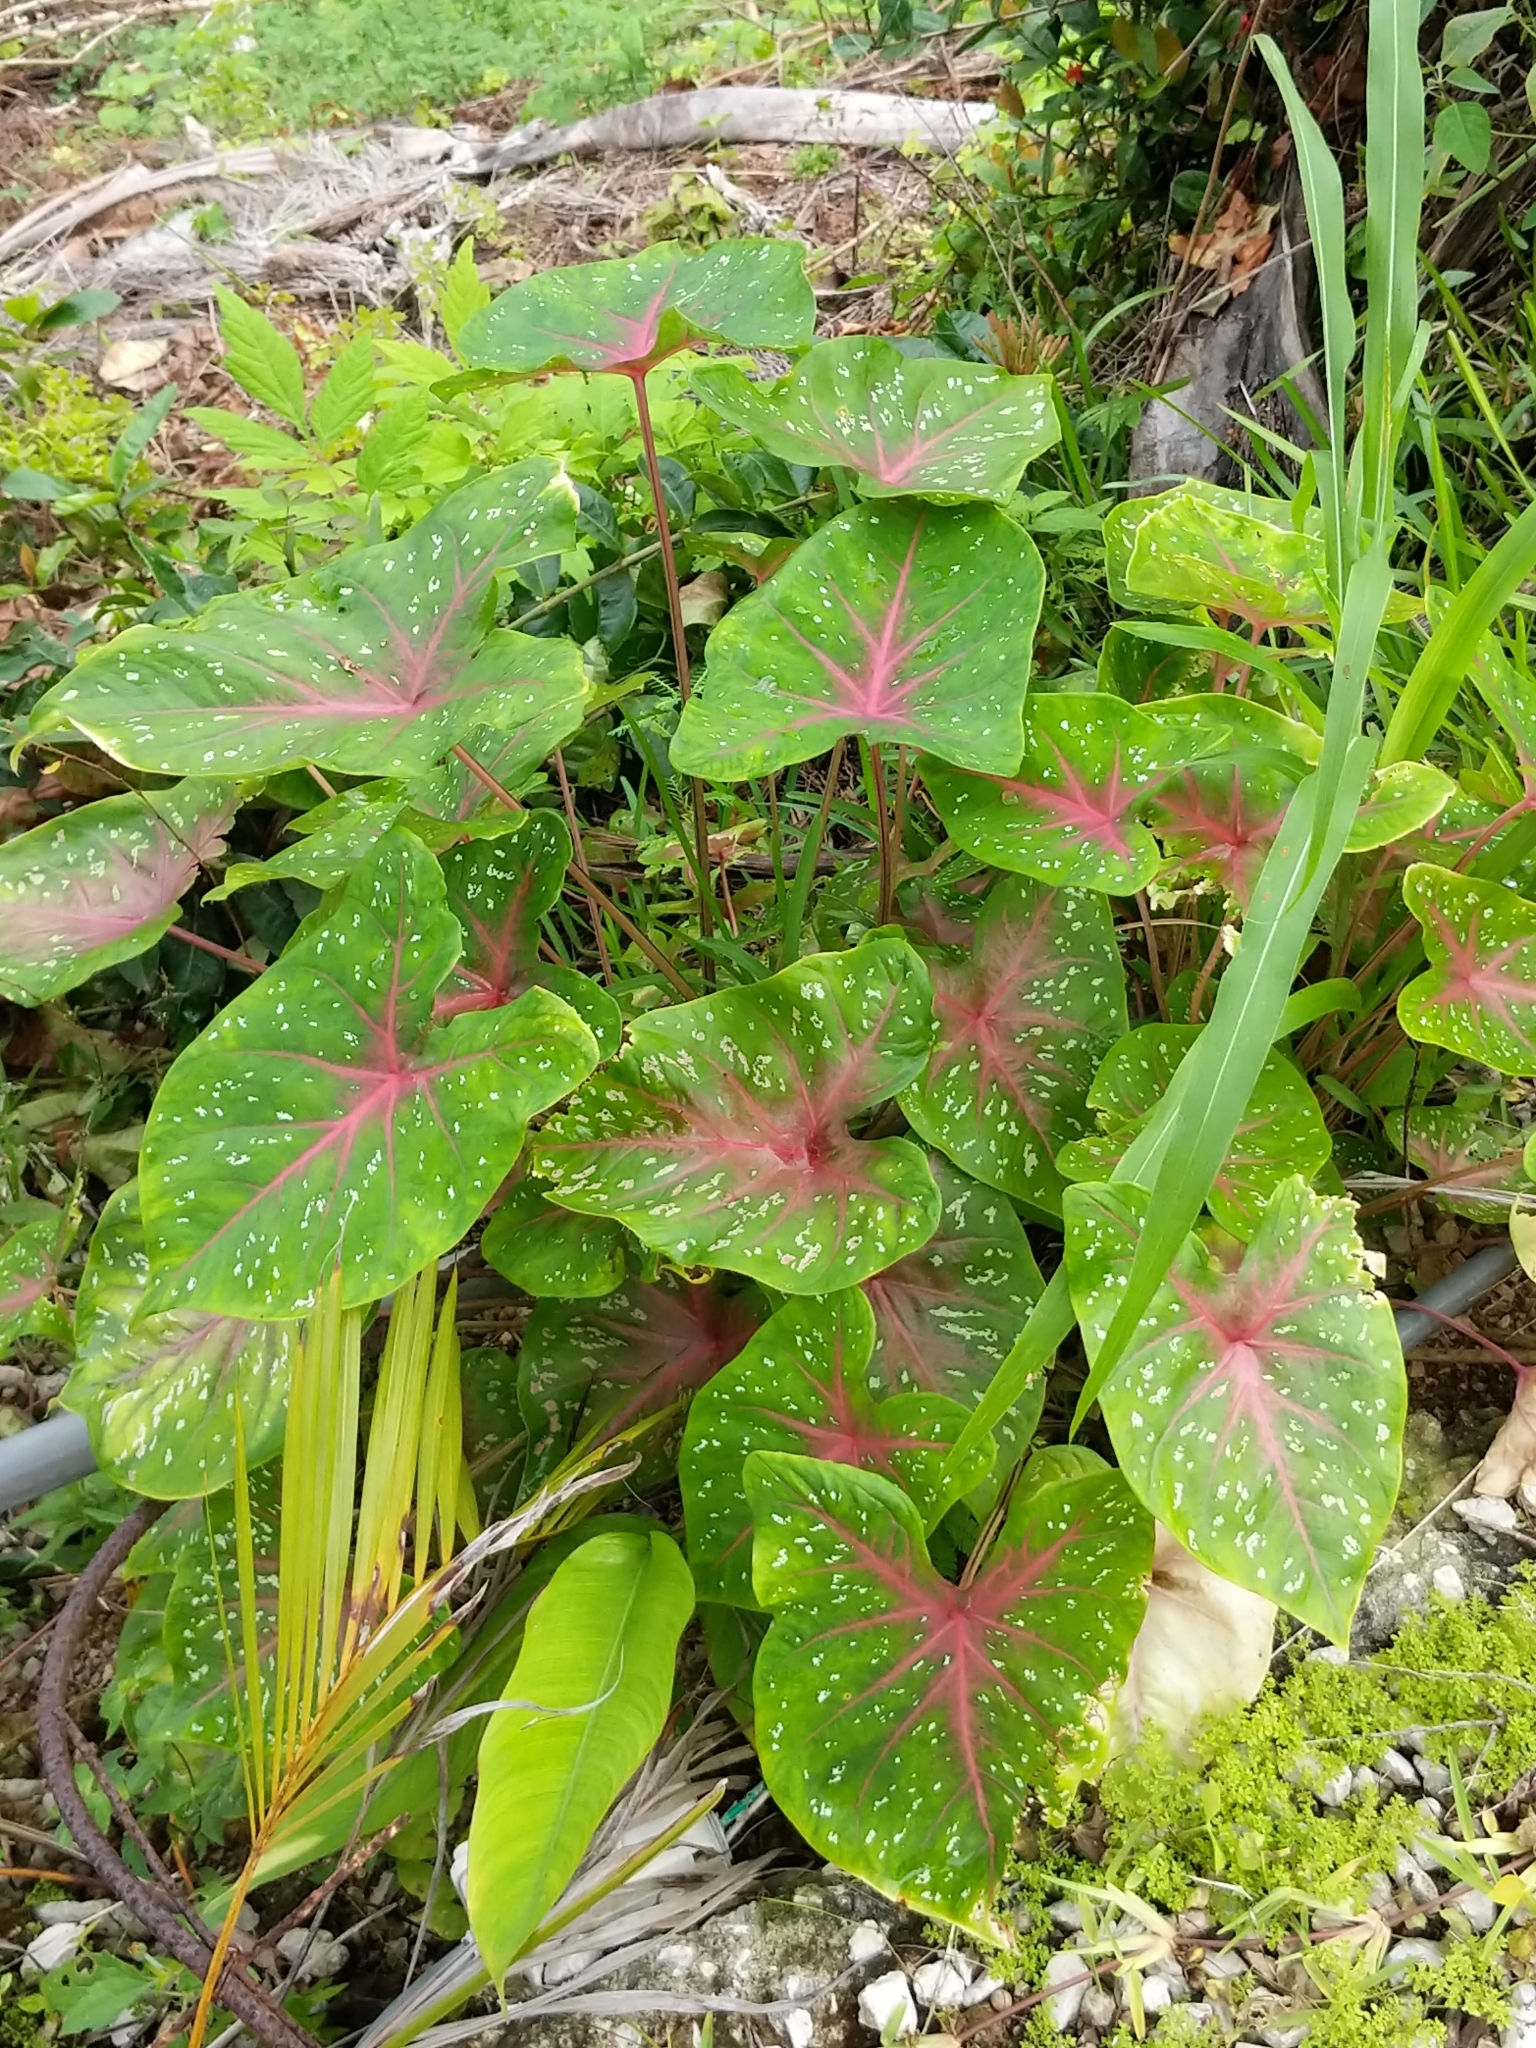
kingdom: Plantae
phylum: Tracheophyta
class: Liliopsida
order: Alismatales
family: Araceae
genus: Caladium
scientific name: Caladium bicolor
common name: Artist's pallet
